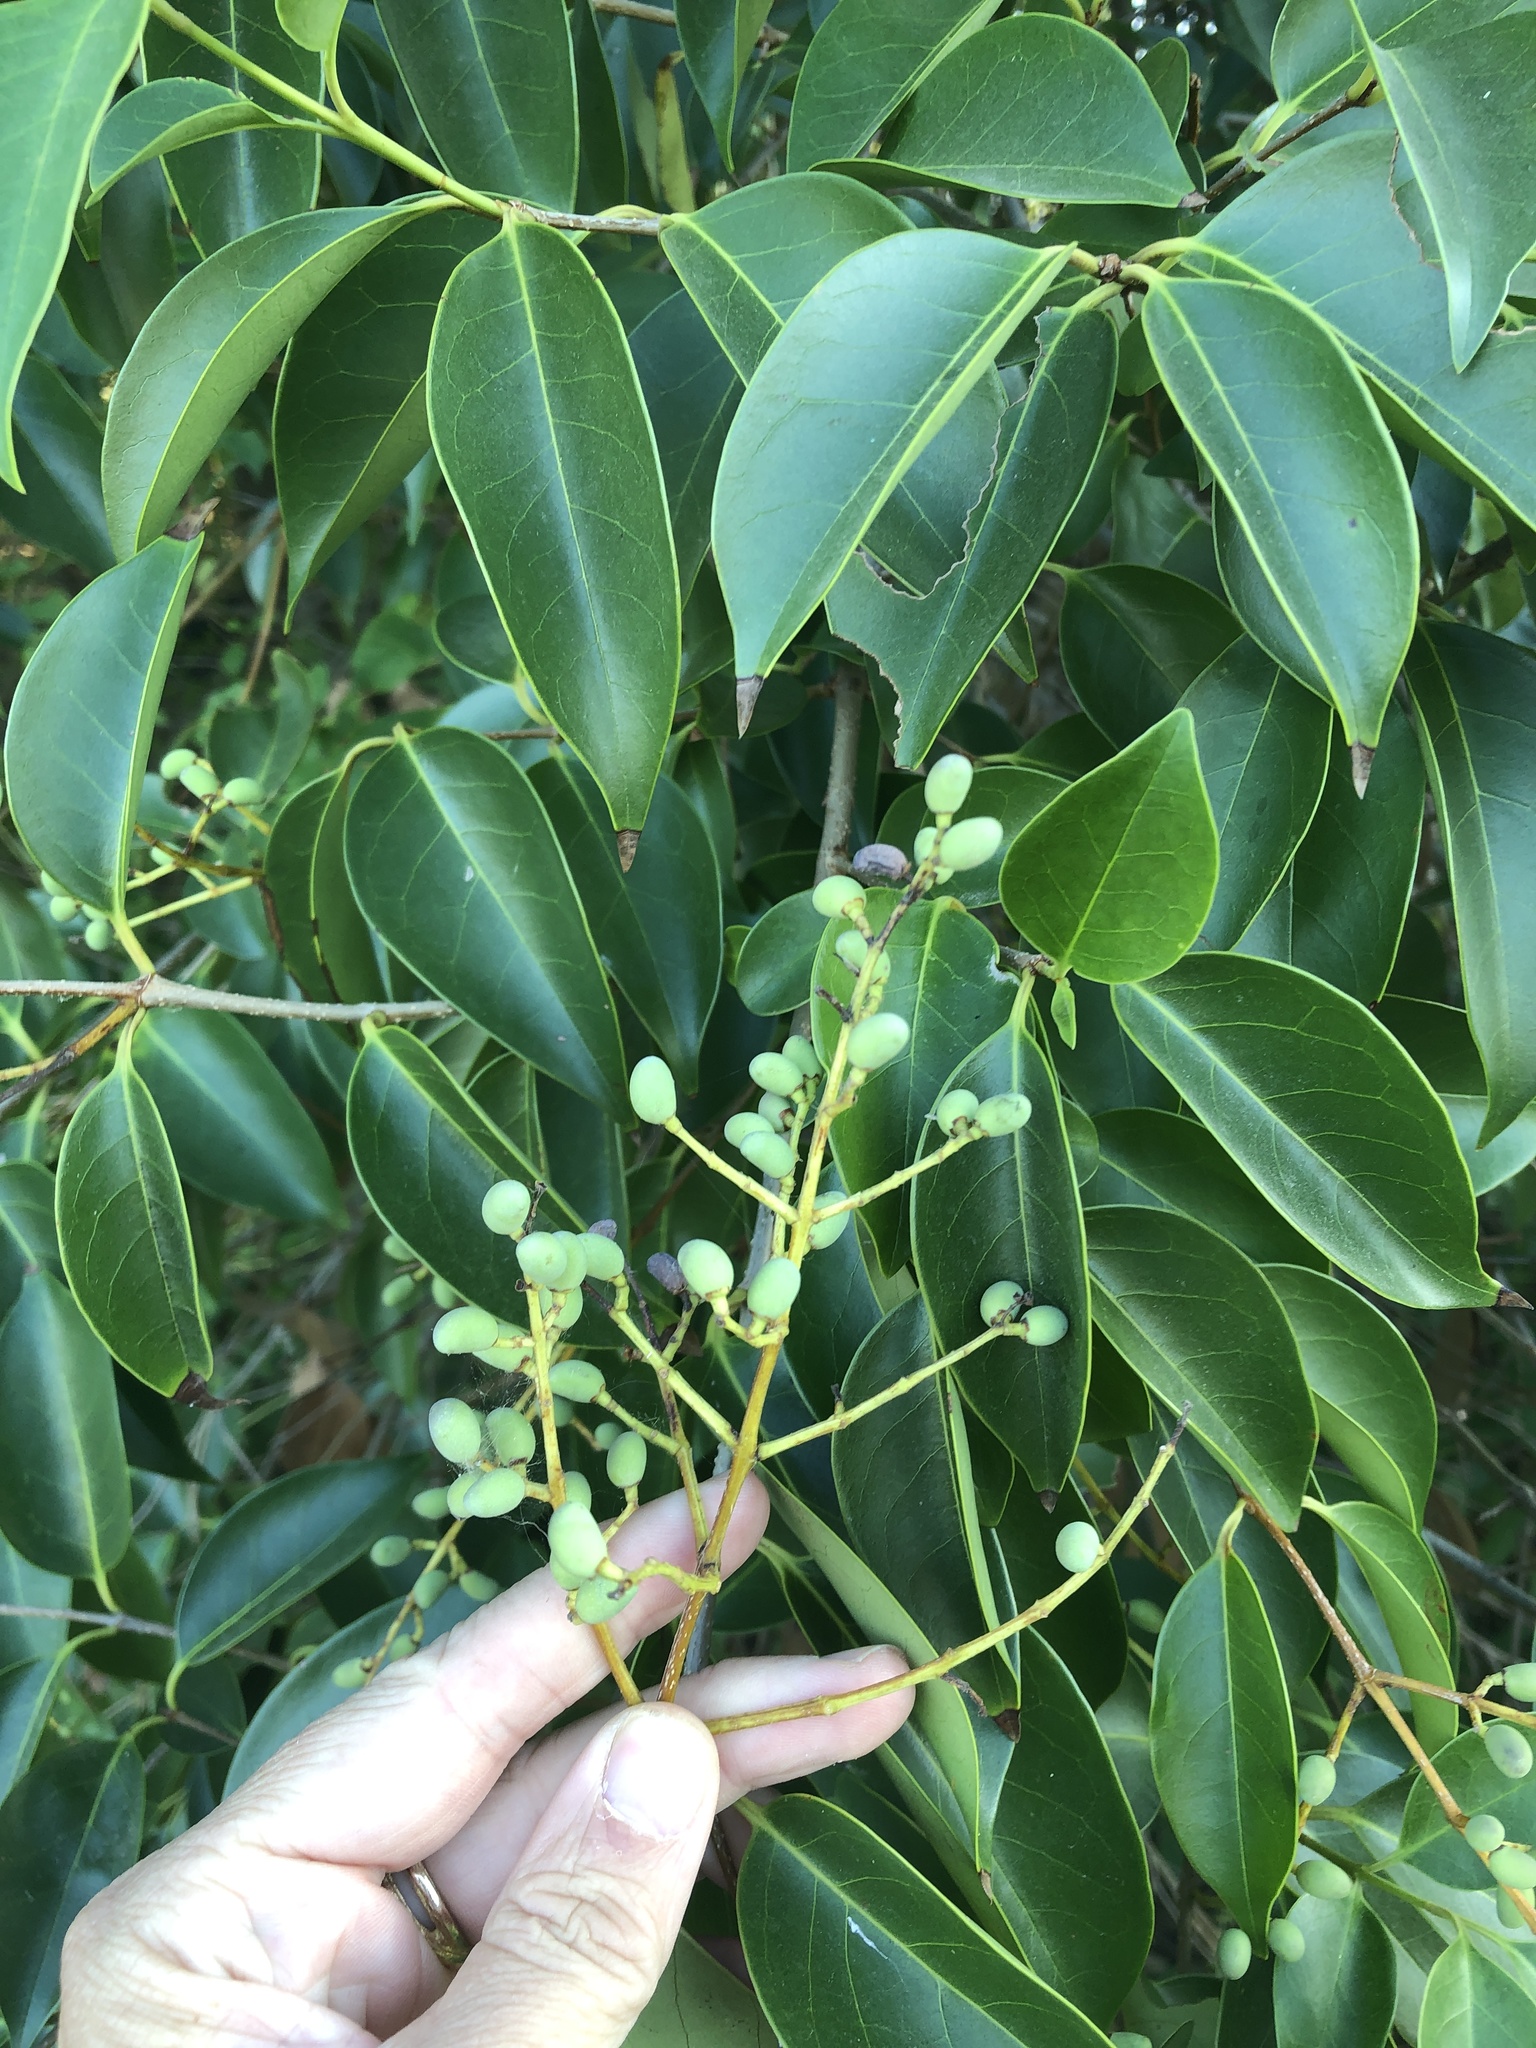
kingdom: Plantae
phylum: Tracheophyta
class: Magnoliopsida
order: Lamiales
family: Oleaceae
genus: Ligustrum
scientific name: Ligustrum lucidum
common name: Glossy privet
